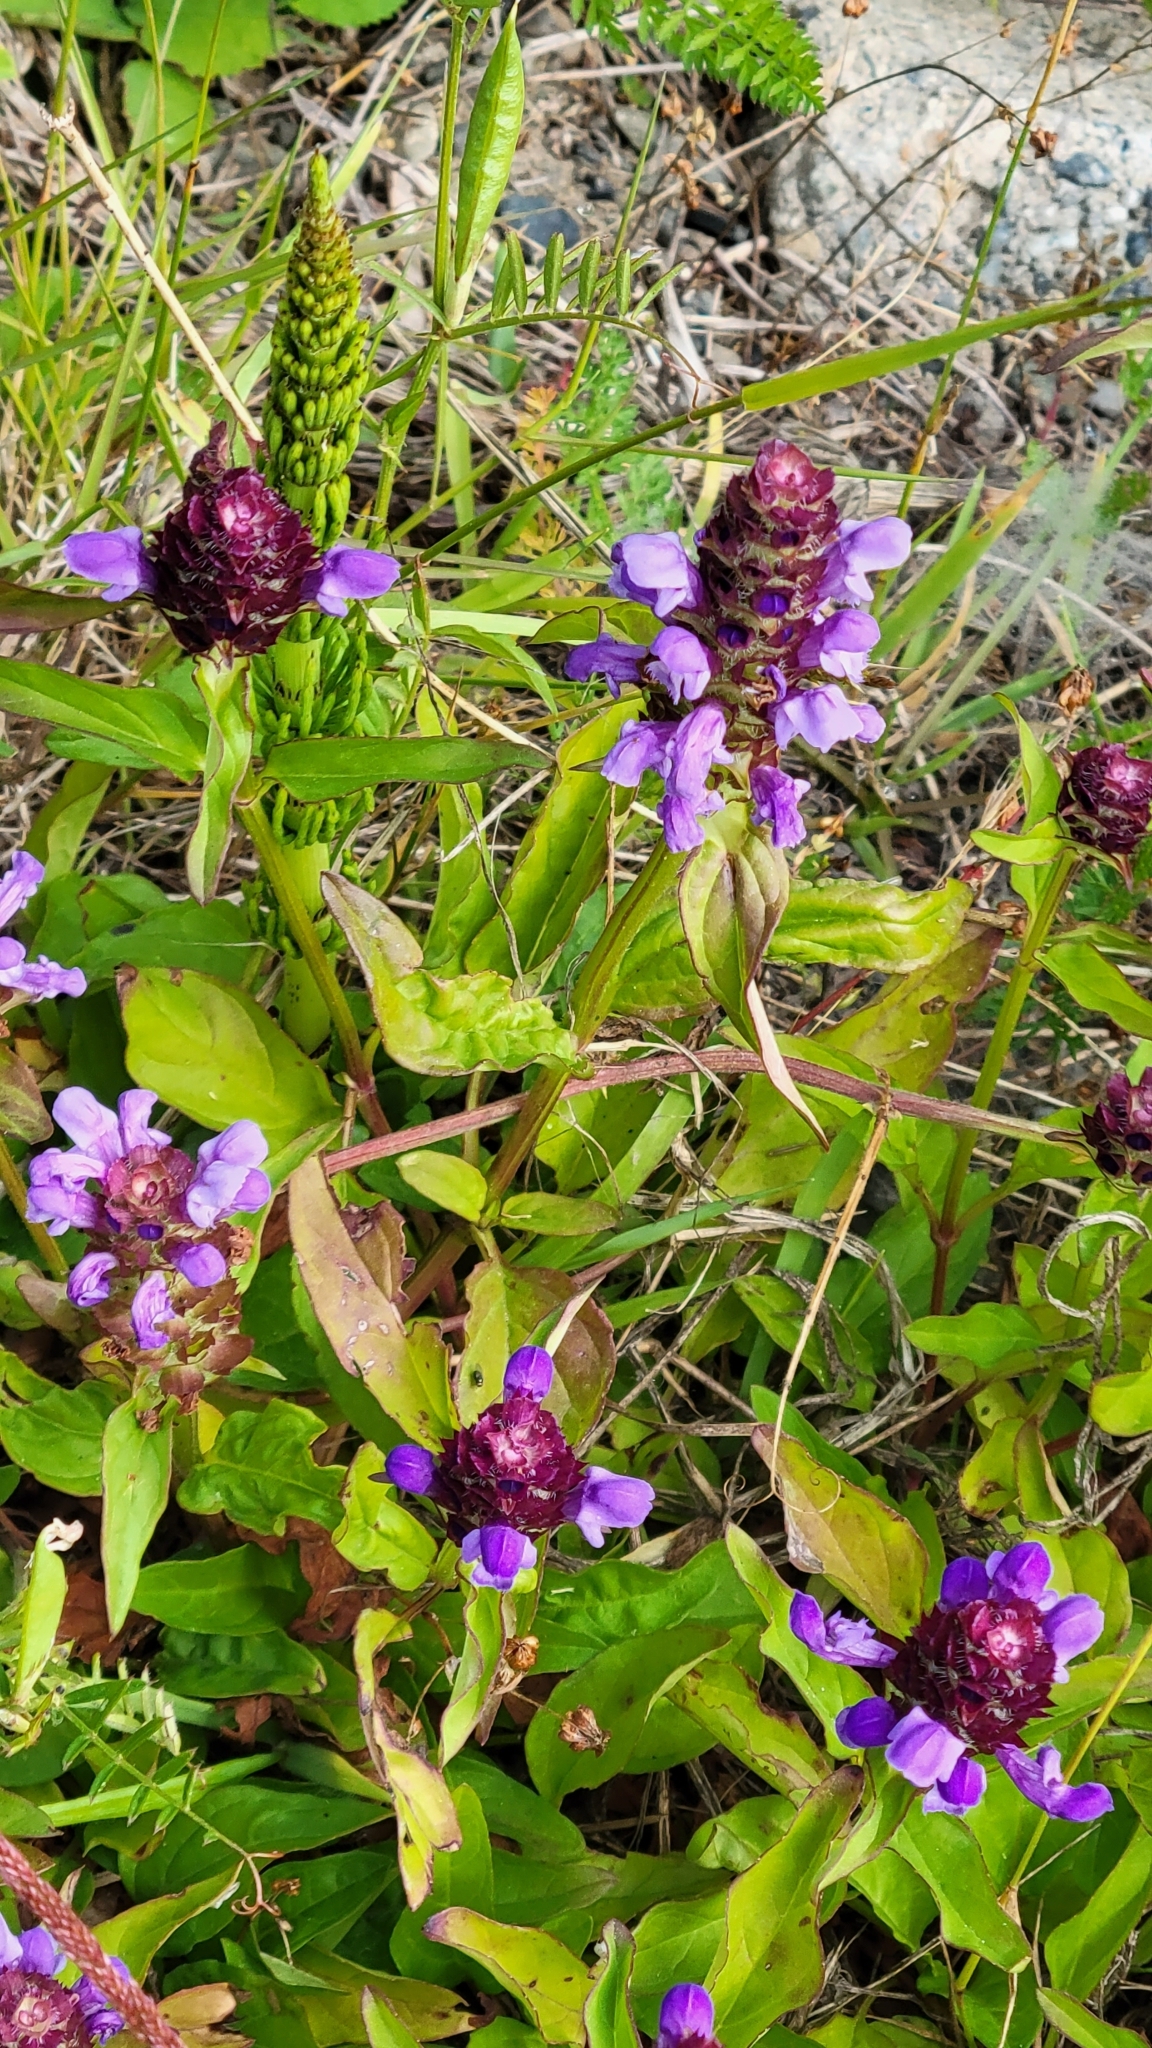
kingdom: Plantae
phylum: Tracheophyta
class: Magnoliopsida
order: Lamiales
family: Lamiaceae
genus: Prunella
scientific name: Prunella vulgaris
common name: Heal-all
